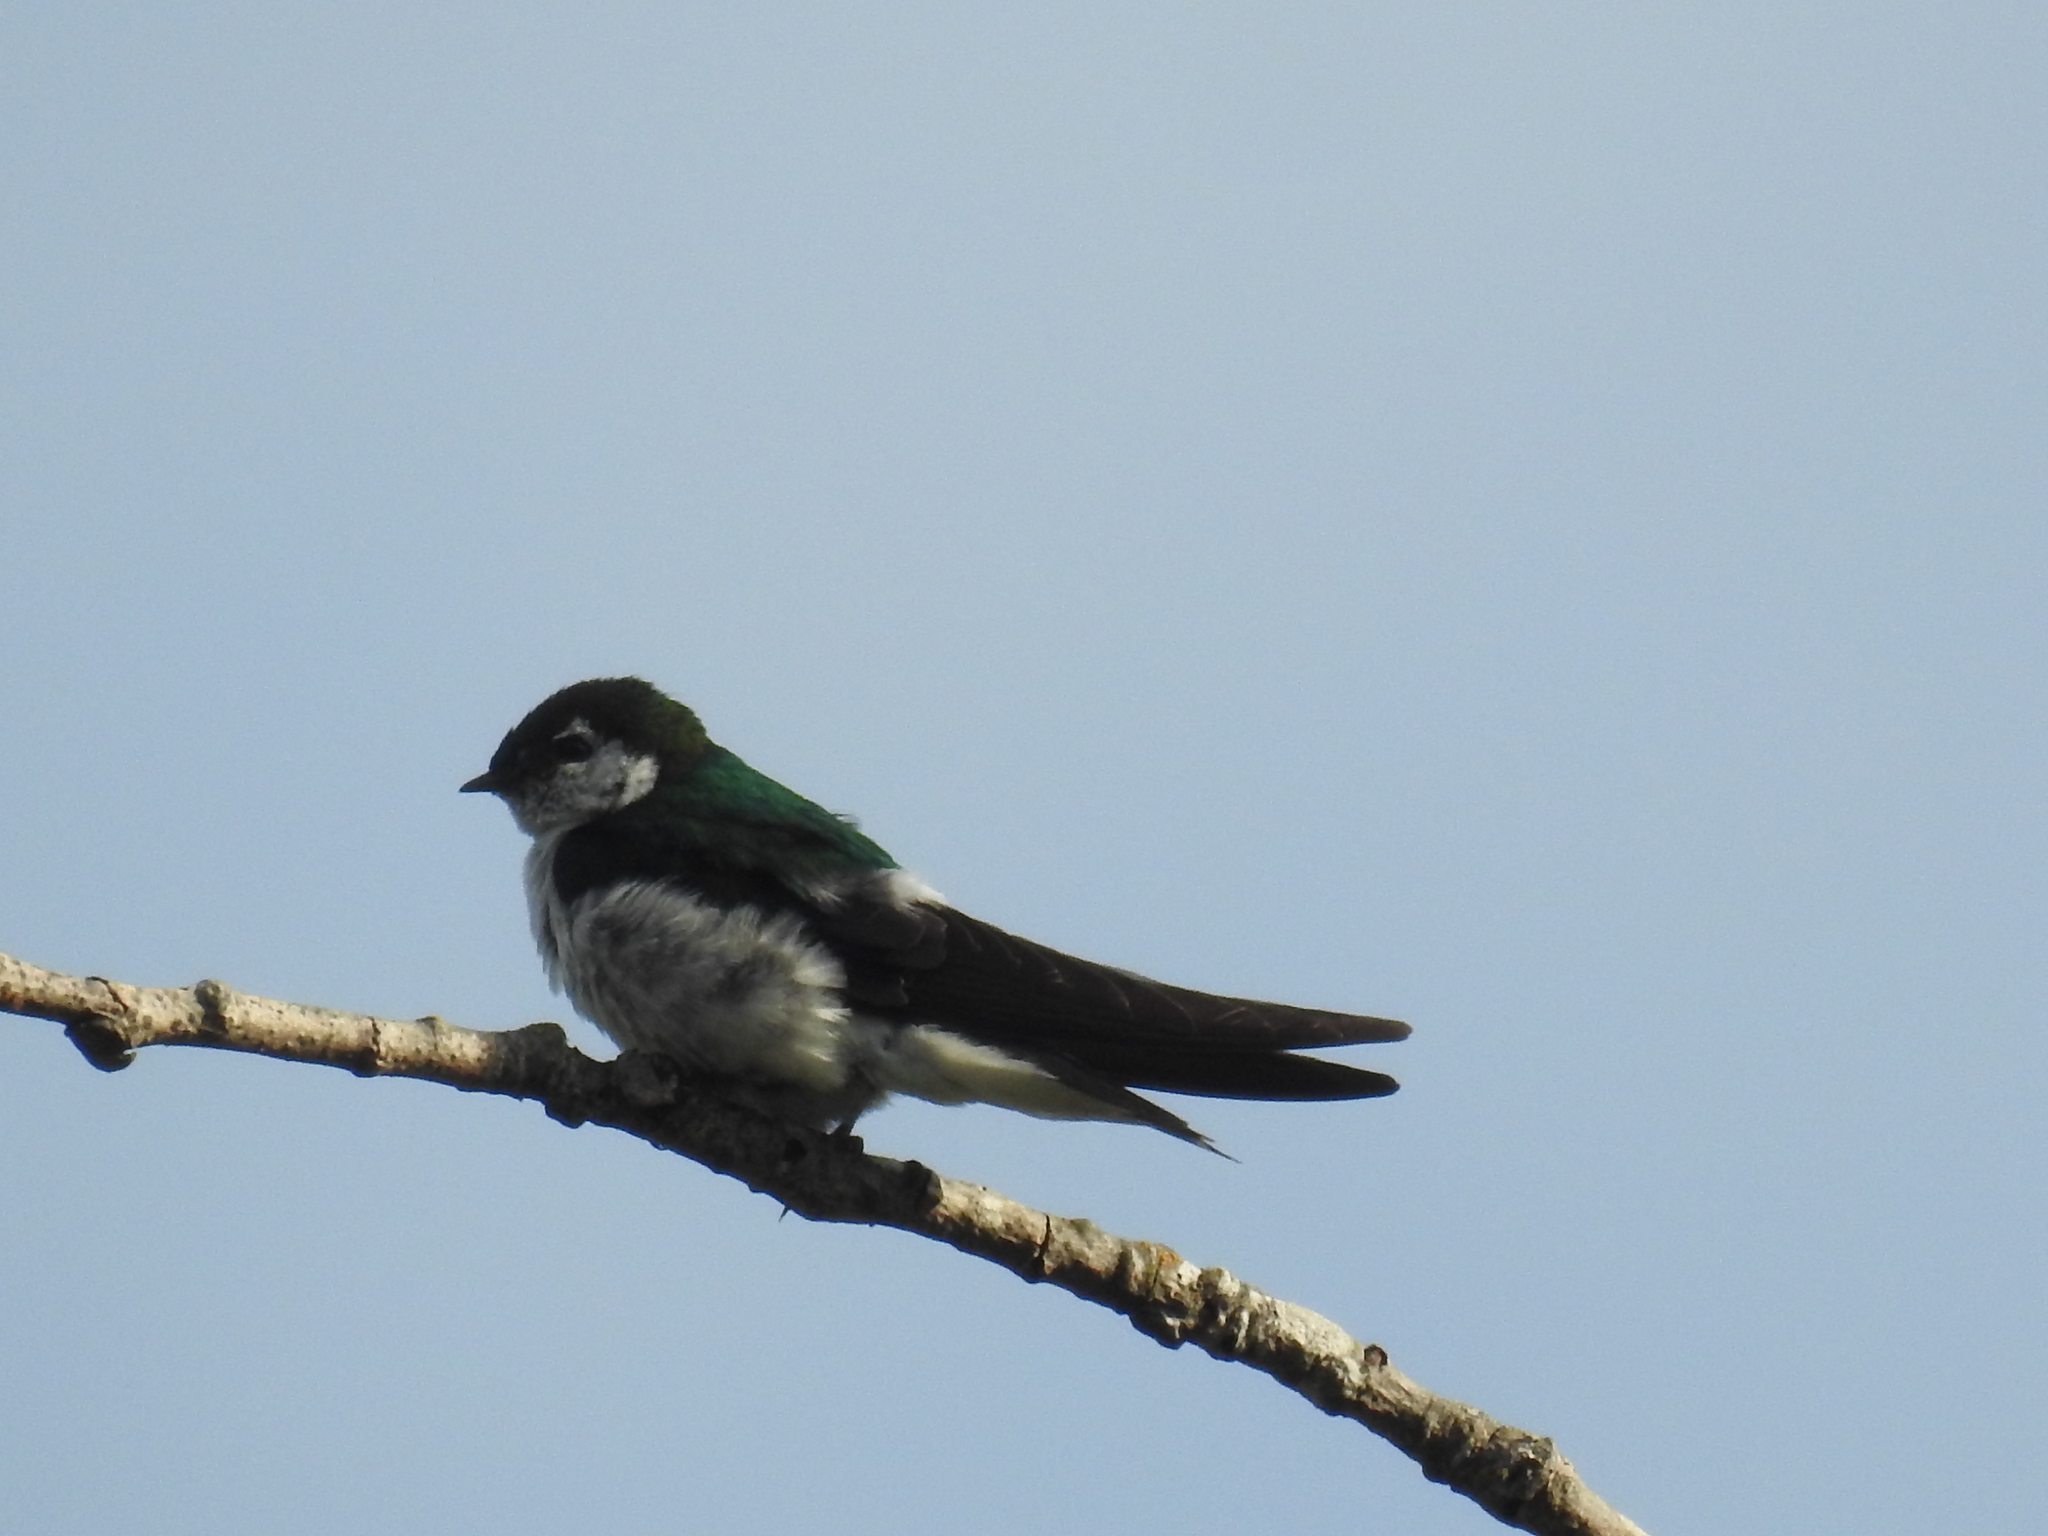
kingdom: Animalia
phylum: Chordata
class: Aves
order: Passeriformes
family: Hirundinidae
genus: Tachycineta
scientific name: Tachycineta thalassina
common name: Violet-green swallow
